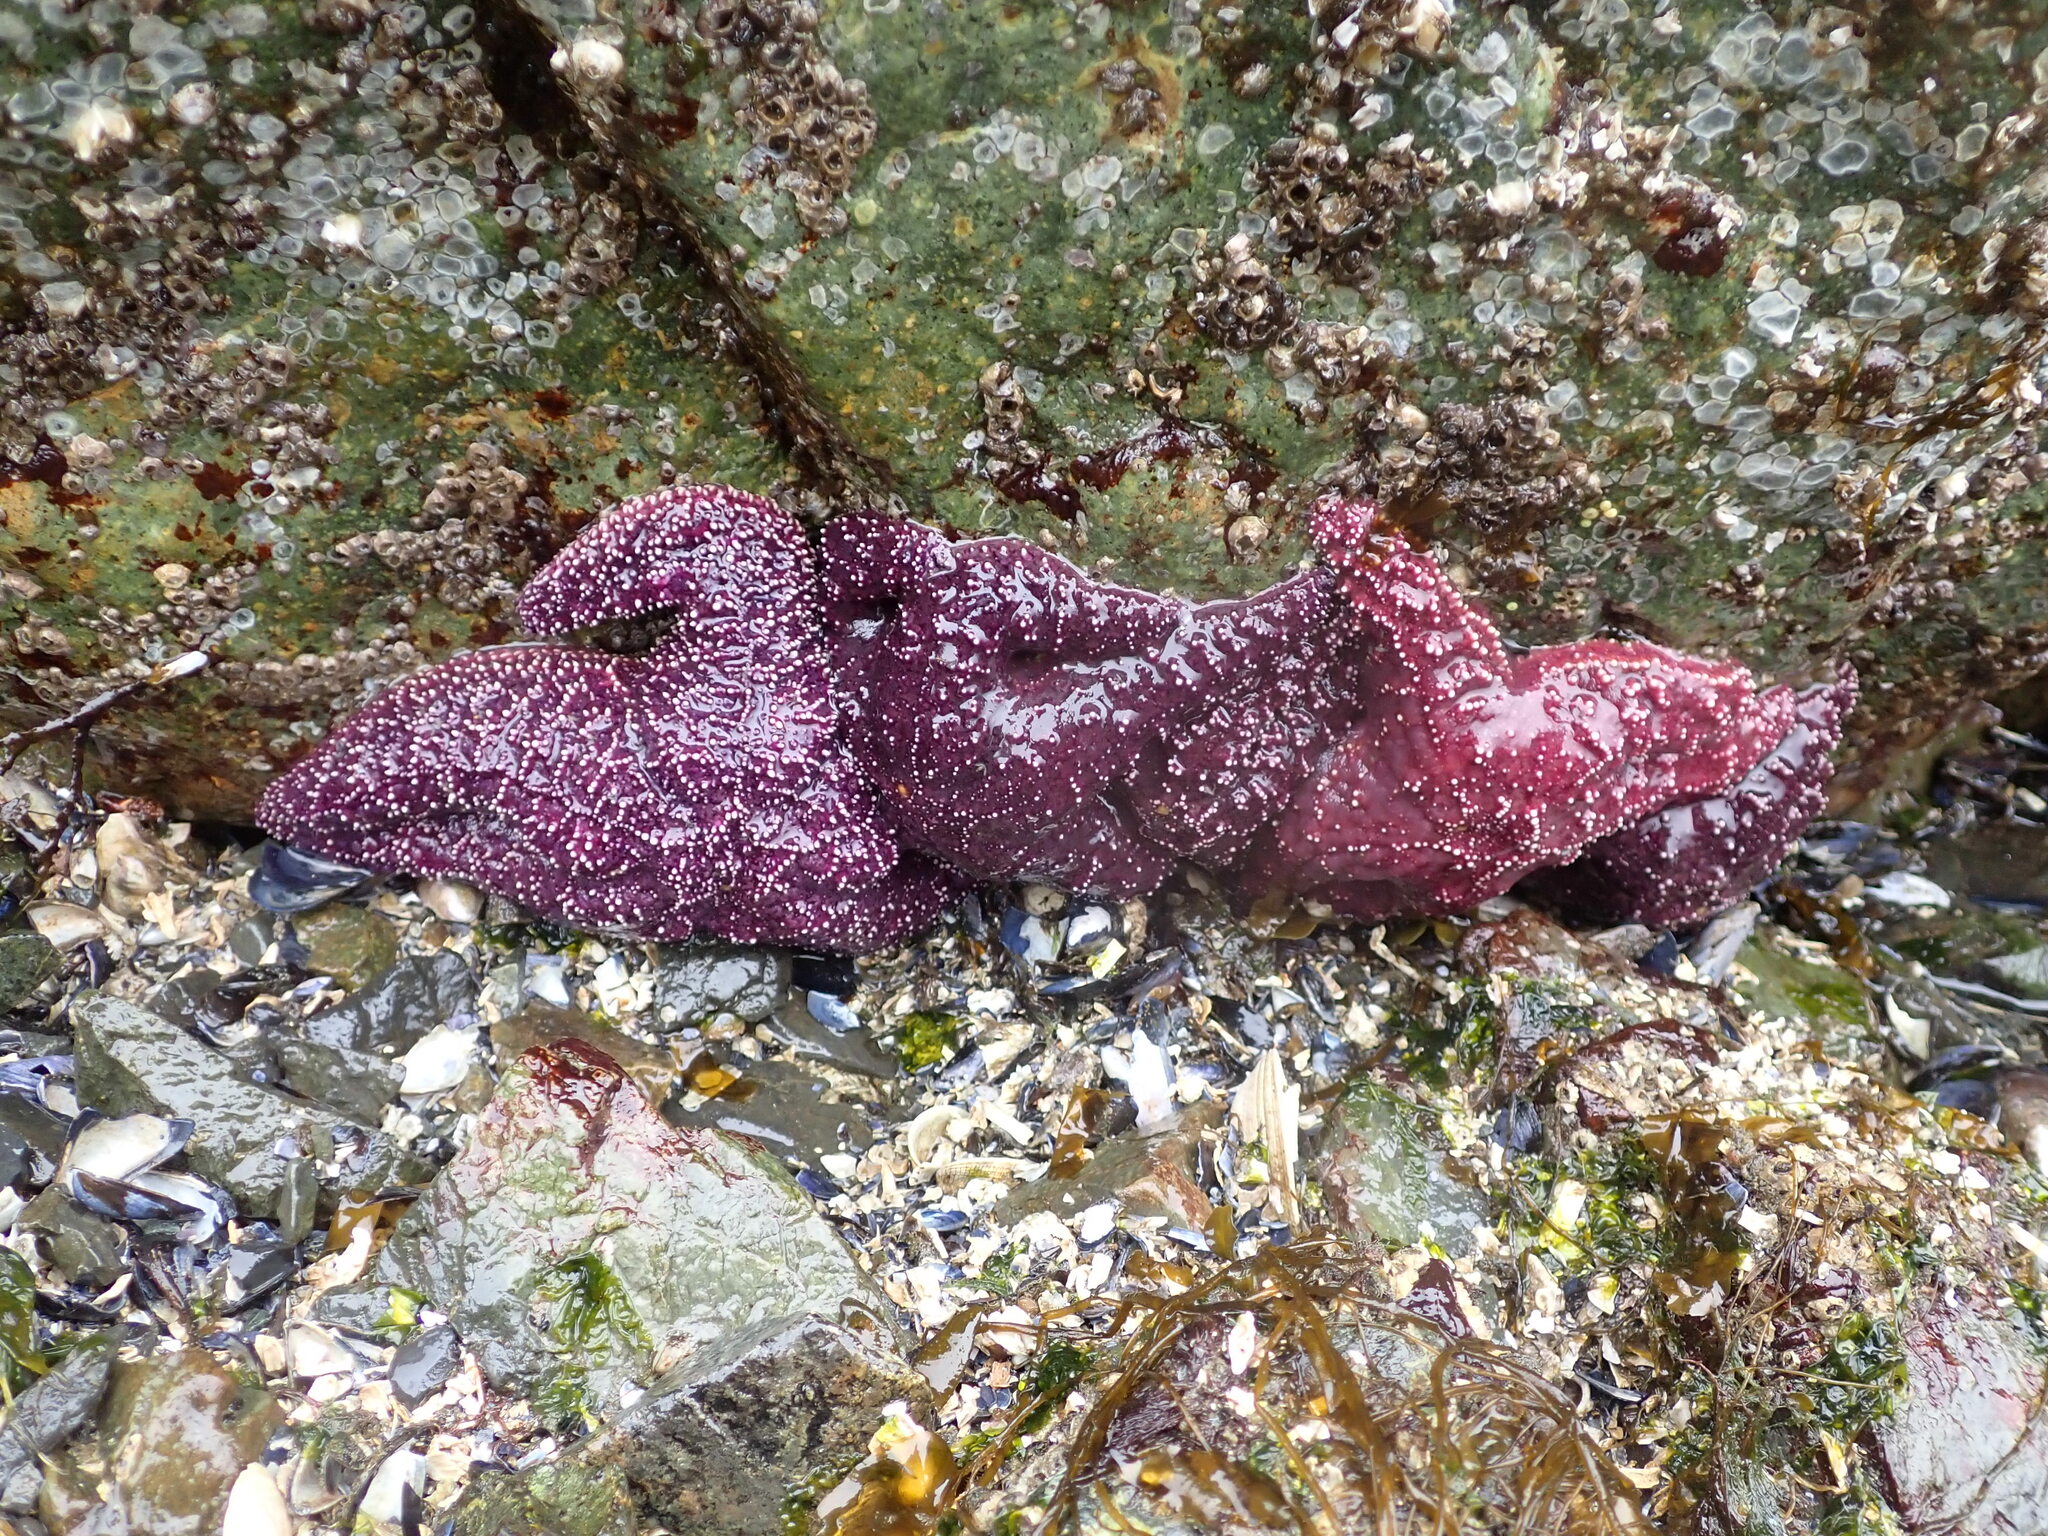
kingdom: Animalia
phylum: Echinodermata
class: Asteroidea
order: Forcipulatida
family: Asteriidae
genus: Pisaster
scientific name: Pisaster ochraceus
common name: Ochre stars
